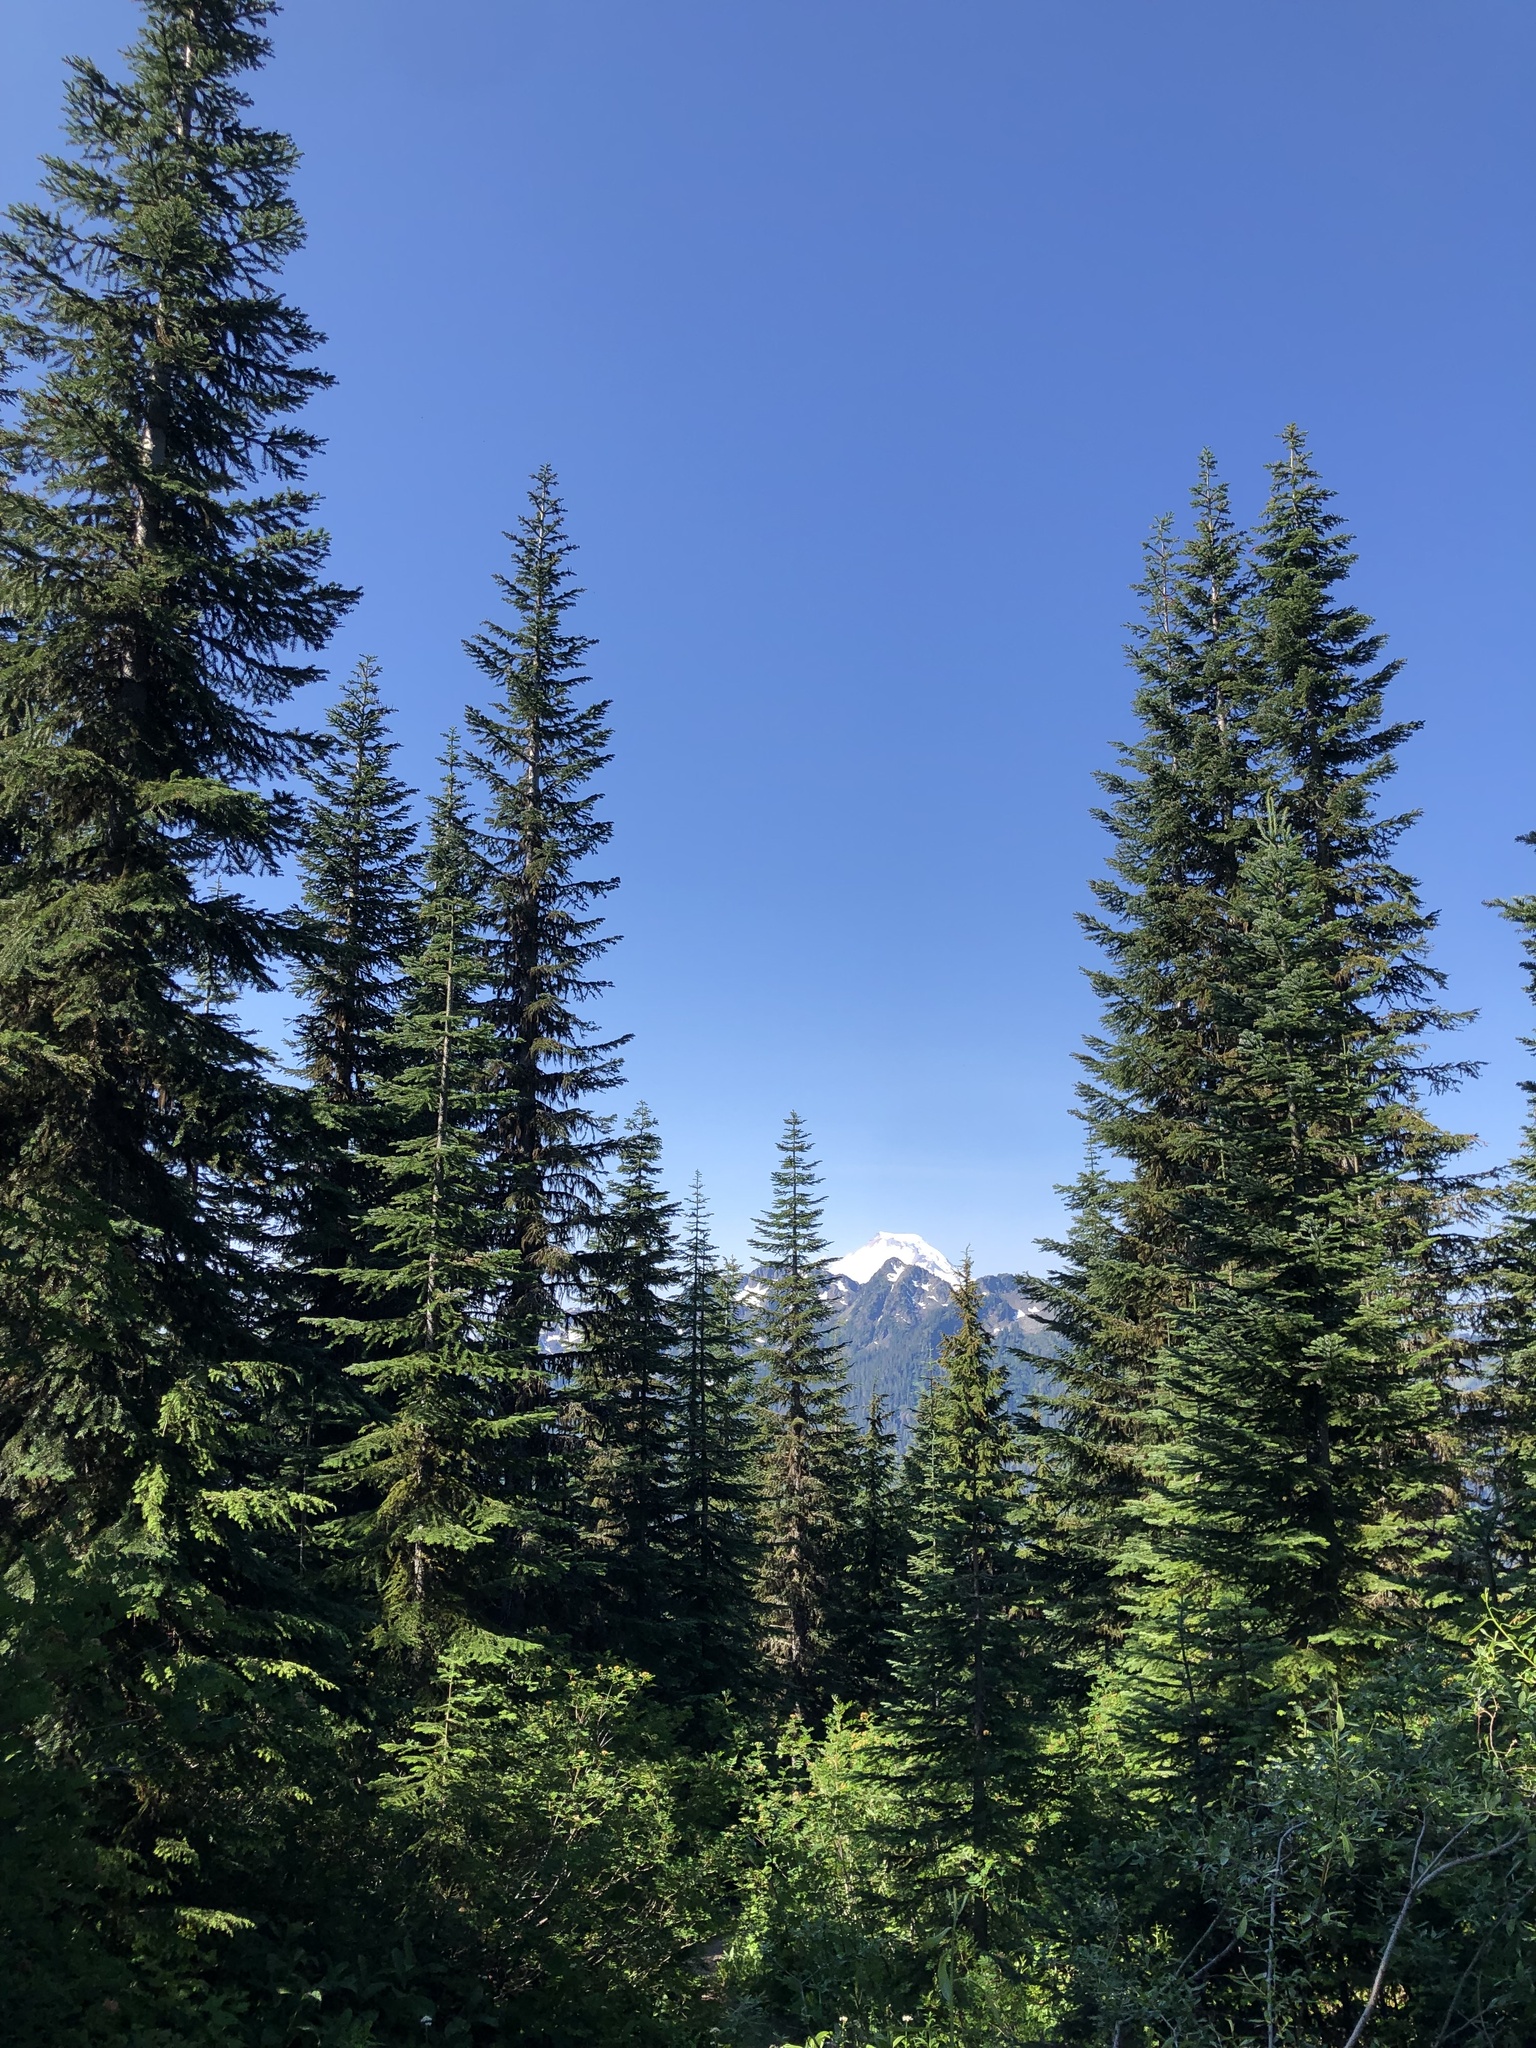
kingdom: Plantae
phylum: Tracheophyta
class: Pinopsida
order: Pinales
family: Pinaceae
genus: Abies
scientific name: Abies amabilis
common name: Pacific silver fir
